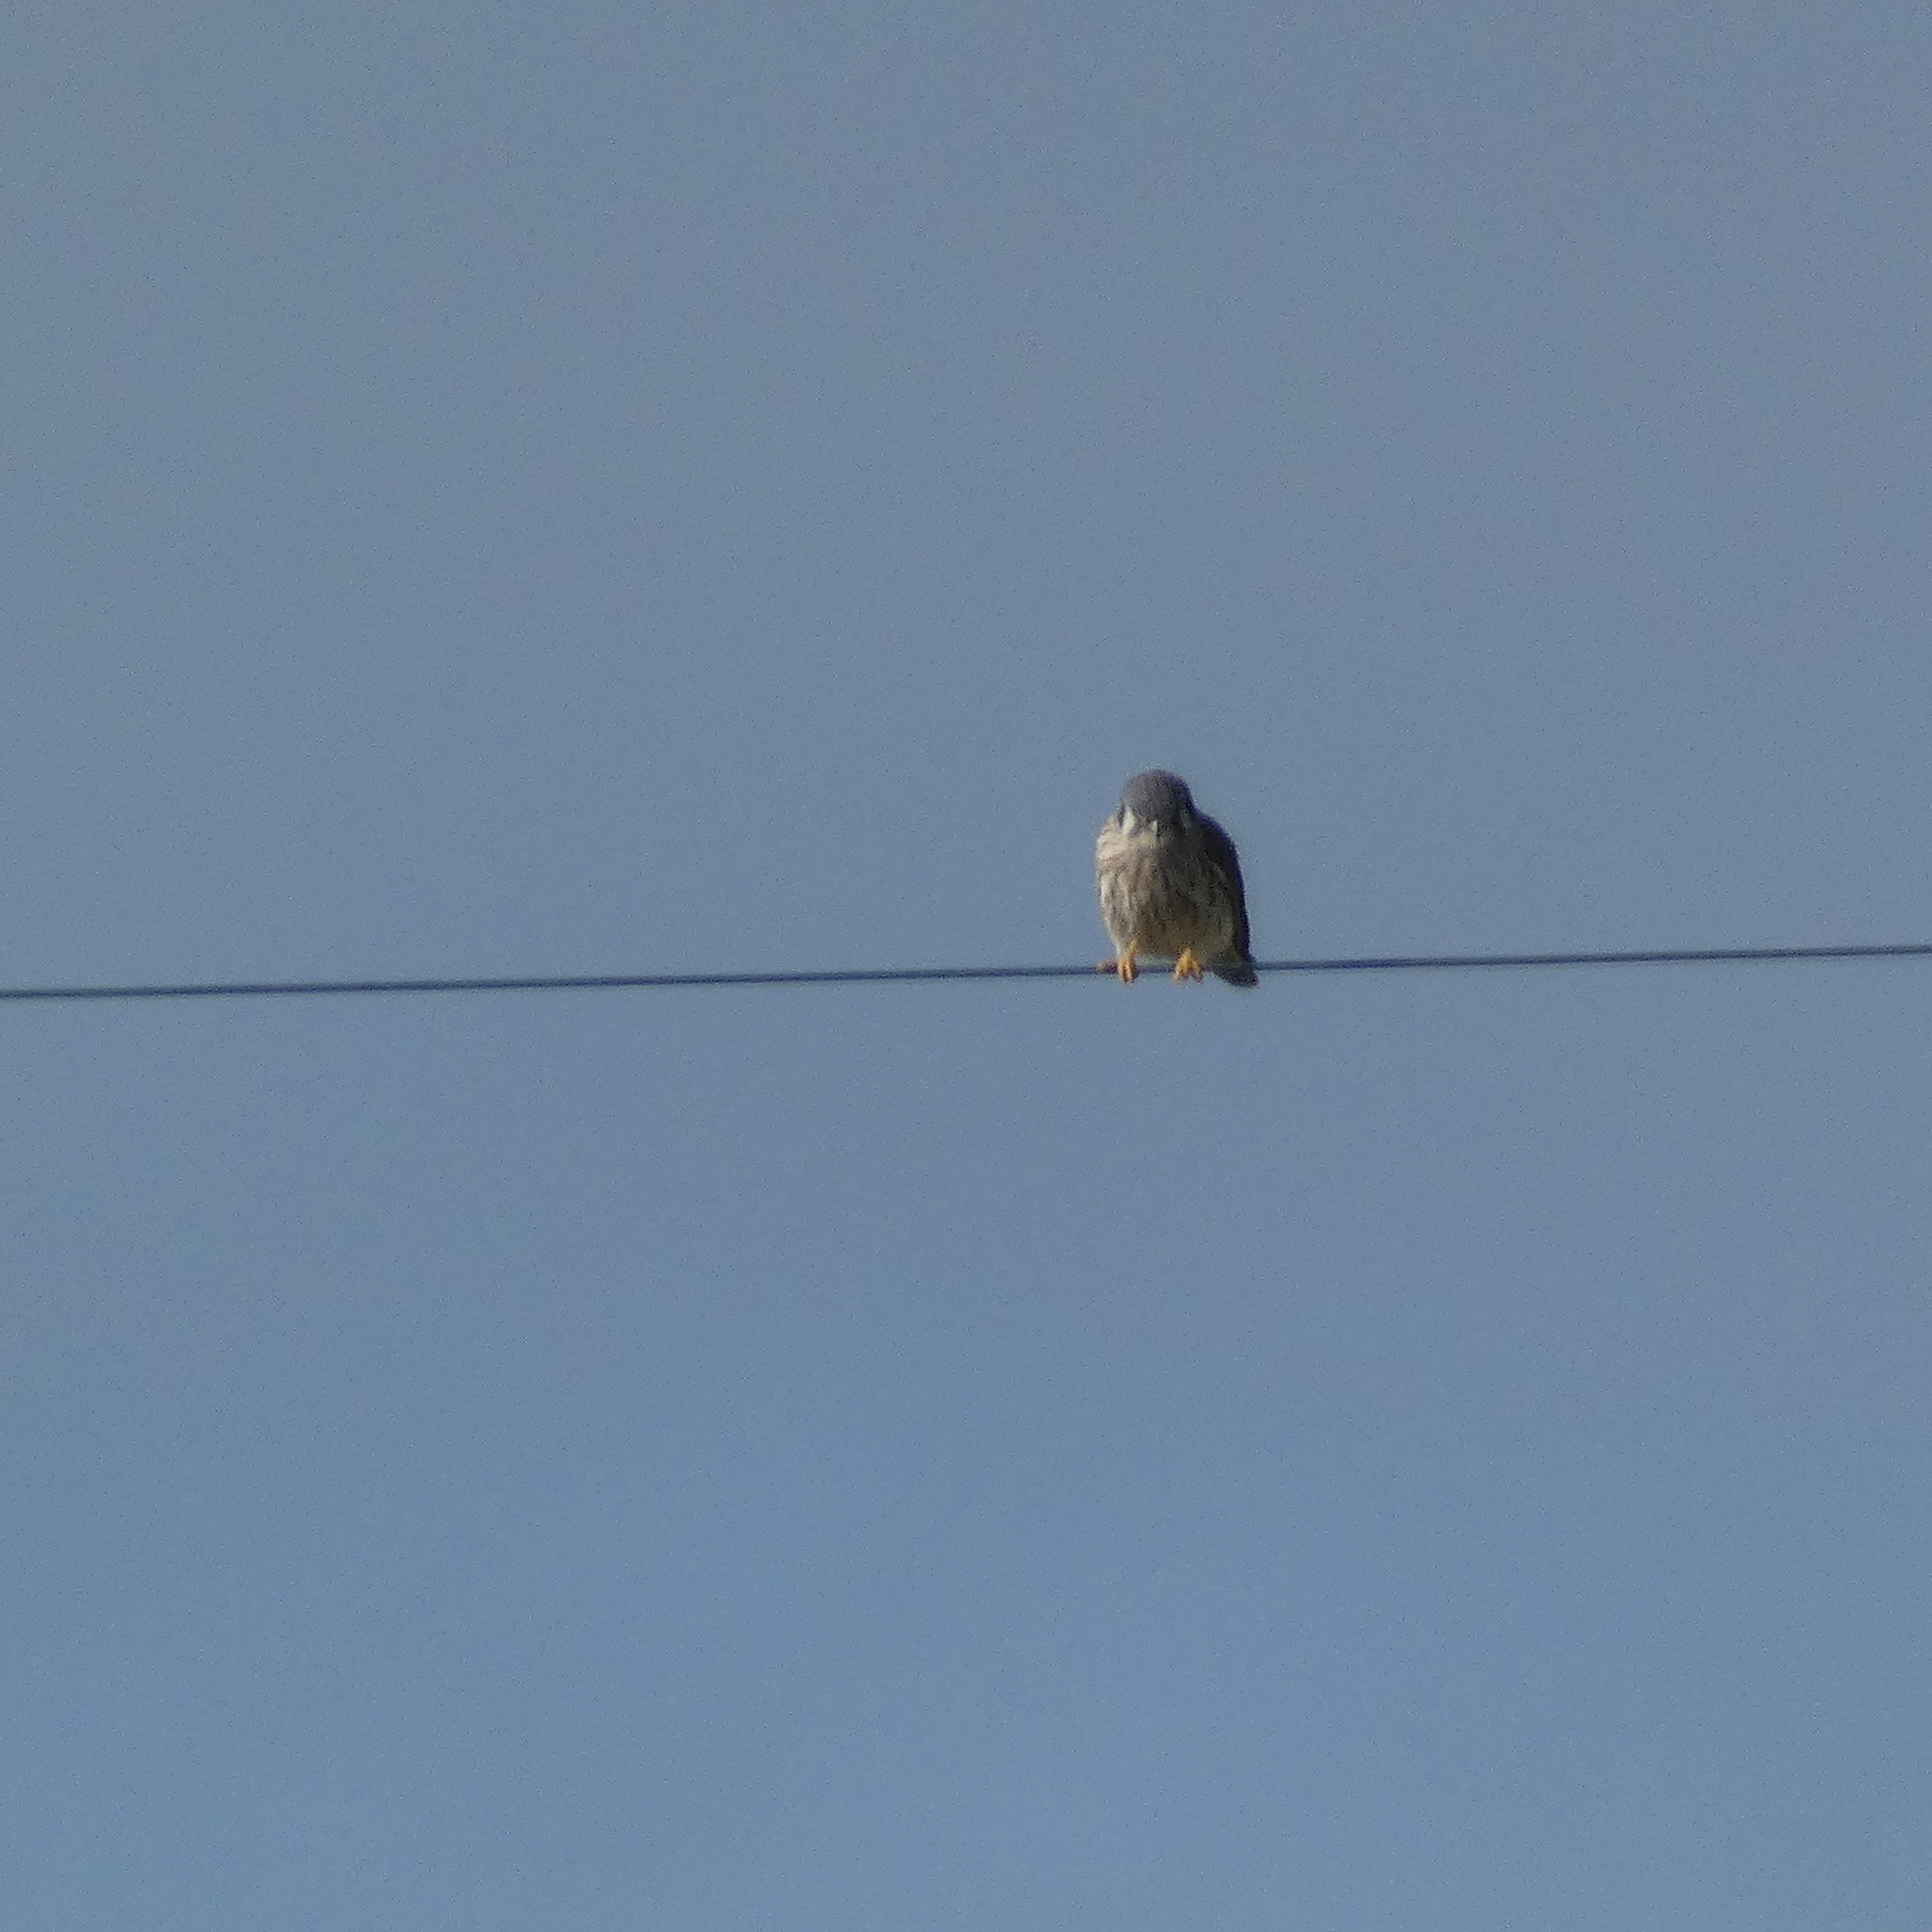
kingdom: Animalia
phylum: Chordata
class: Aves
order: Falconiformes
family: Falconidae
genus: Falco
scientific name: Falco sparverius
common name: American kestrel
